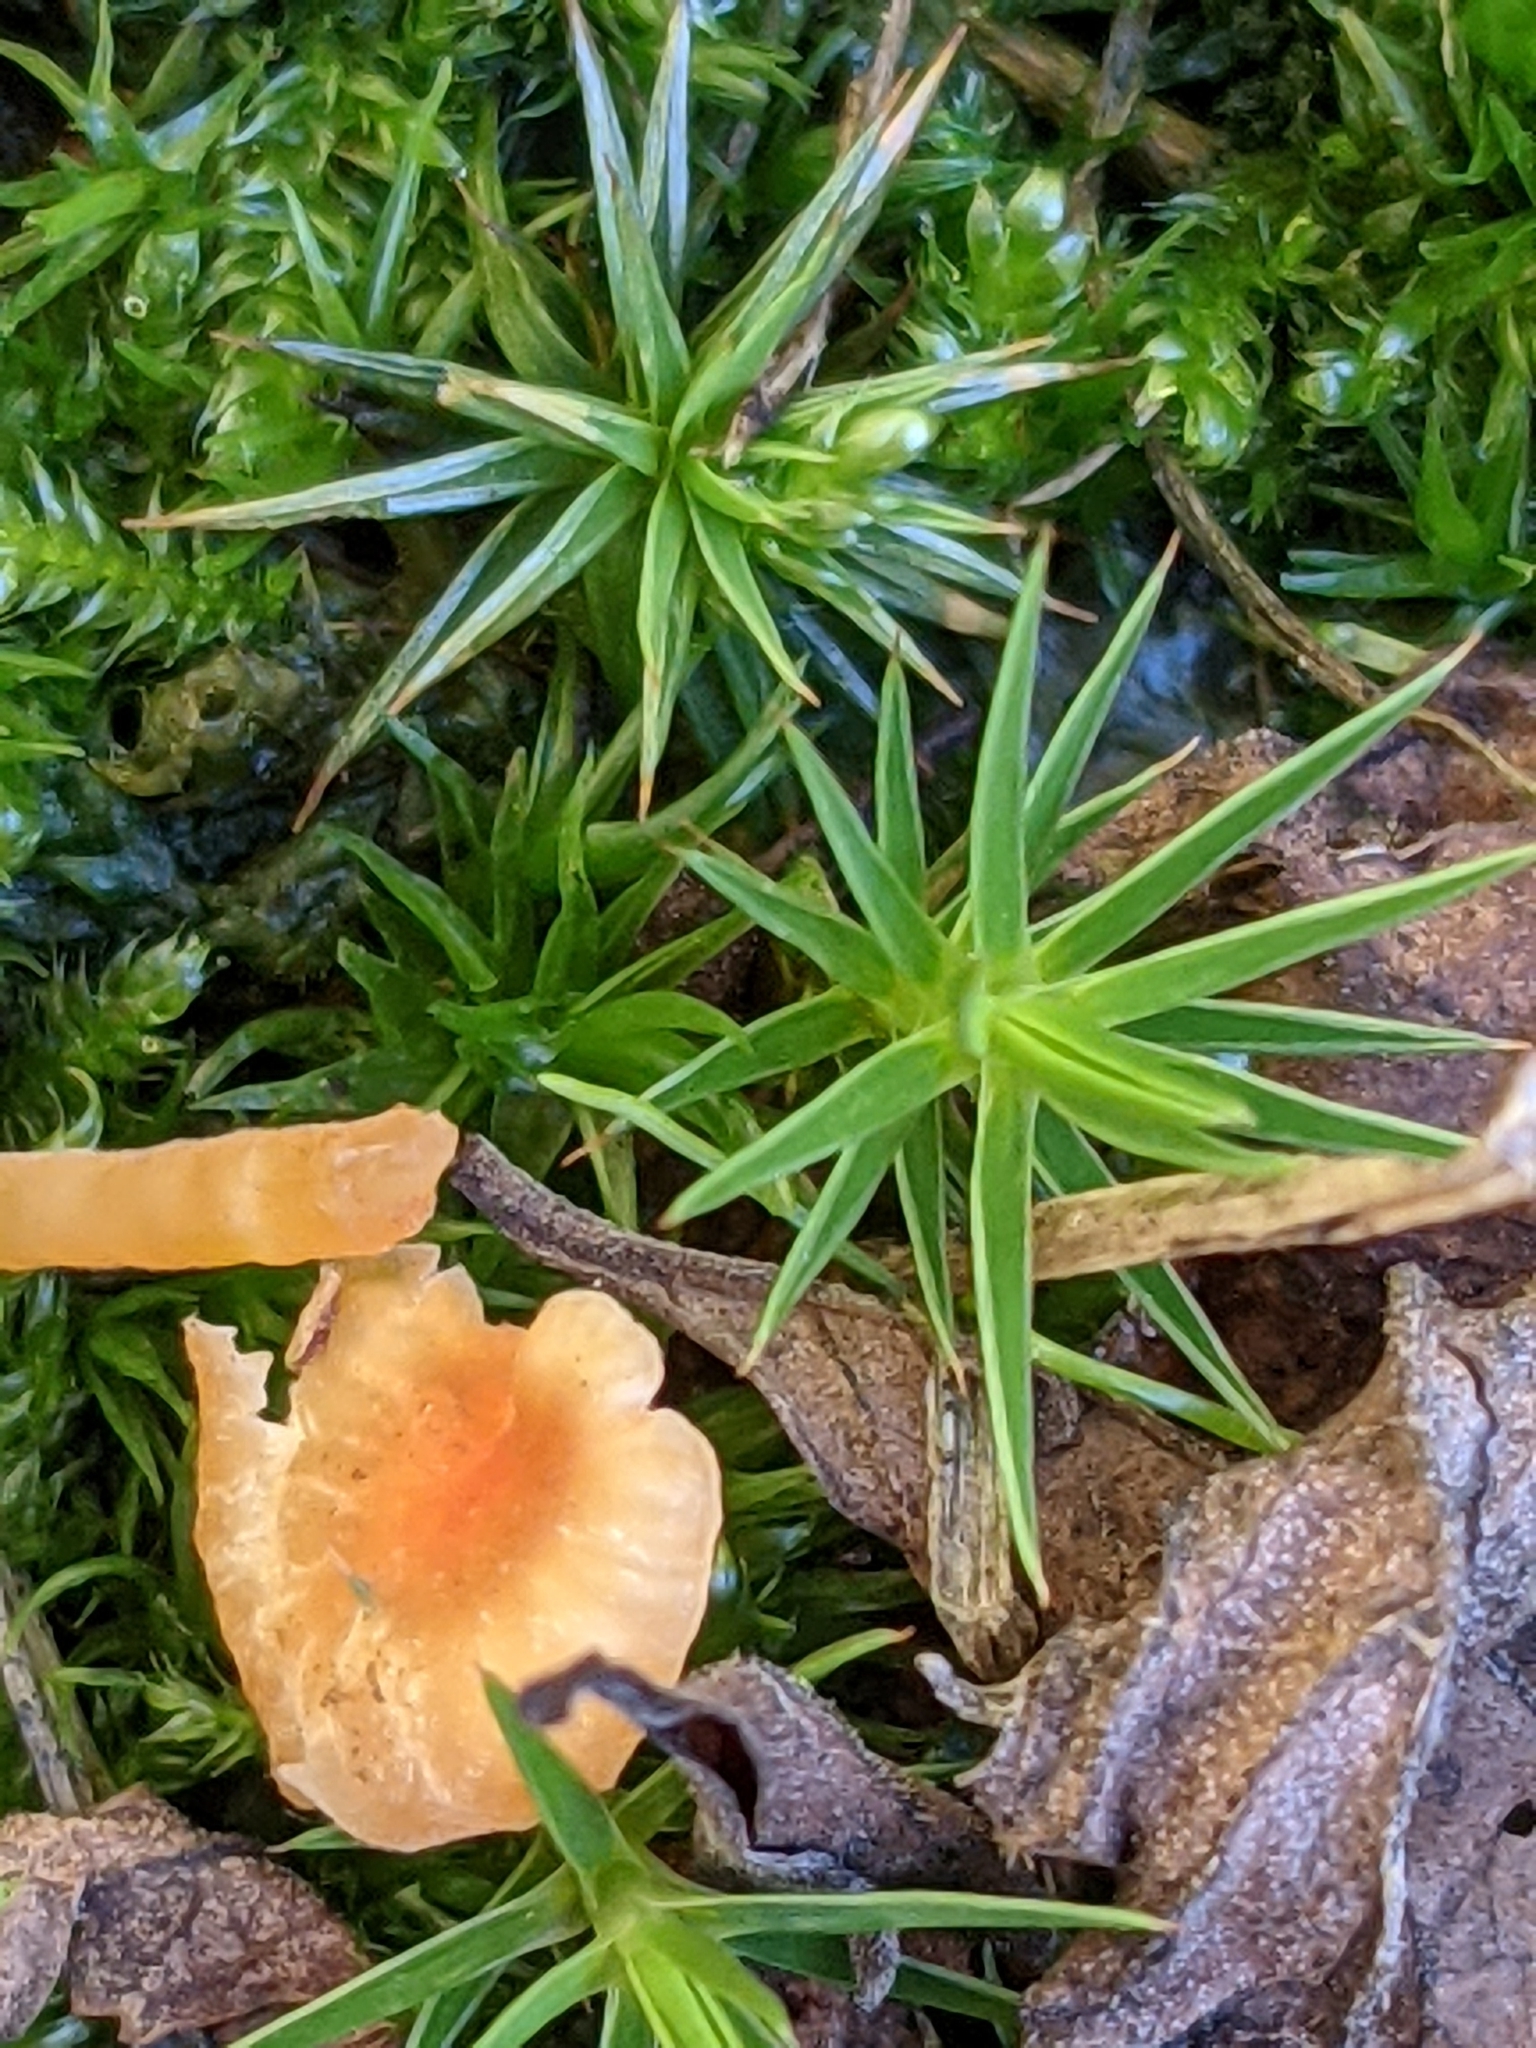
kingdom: Fungi
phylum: Basidiomycota
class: Agaricomycetes
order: Hymenochaetales
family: Rickenellaceae
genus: Rickenella
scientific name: Rickenella fibula
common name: Orange mosscap
